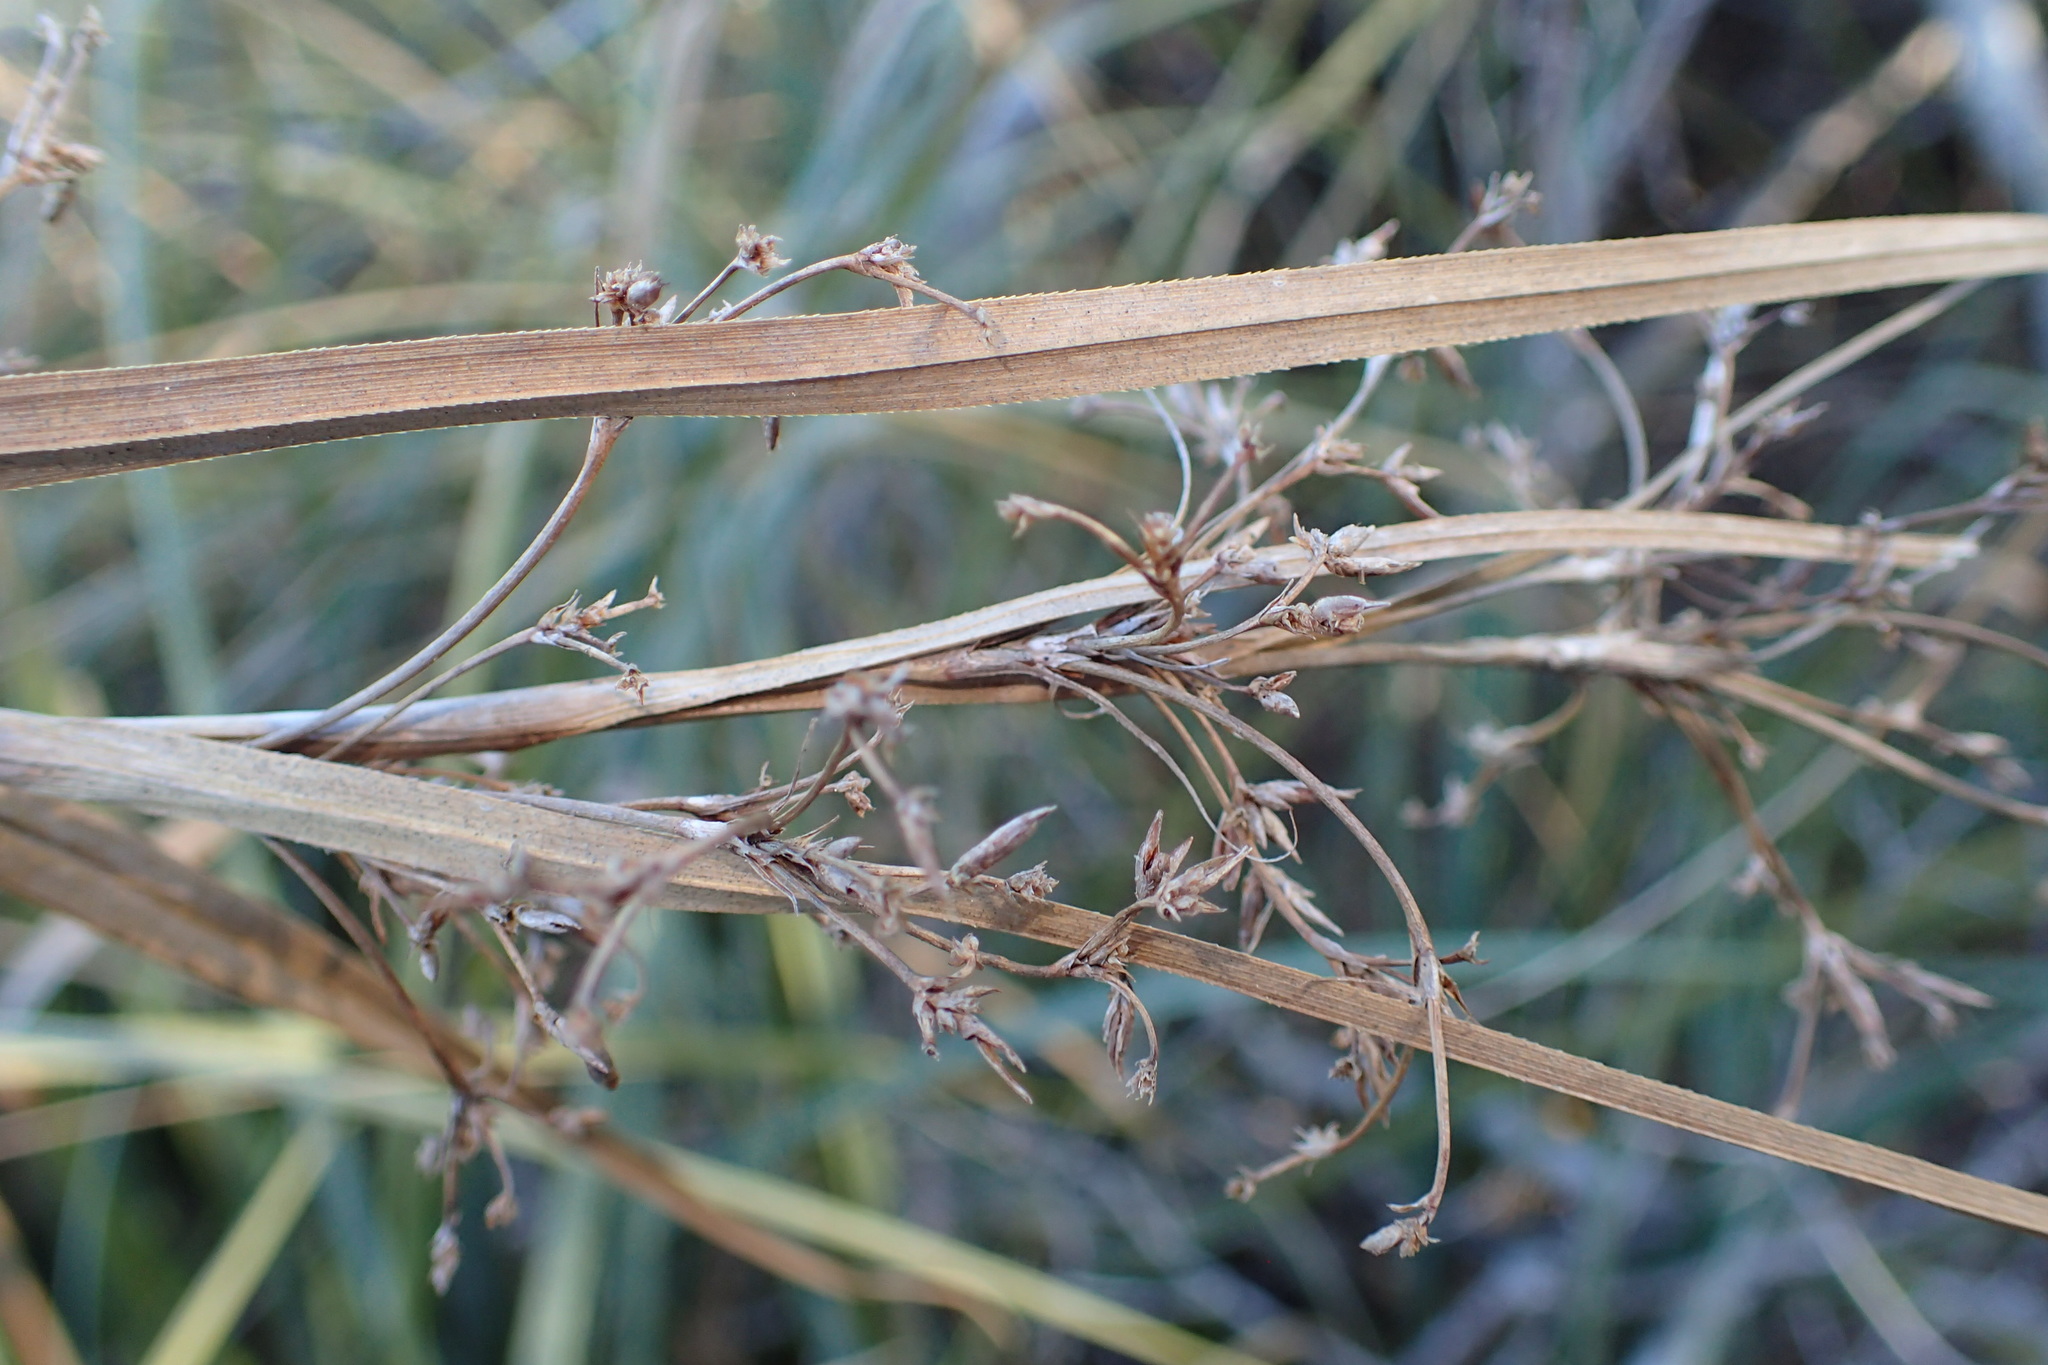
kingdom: Plantae
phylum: Tracheophyta
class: Liliopsida
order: Poales
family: Cyperaceae
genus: Cladium
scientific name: Cladium mariscus
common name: Great fen-sedge
